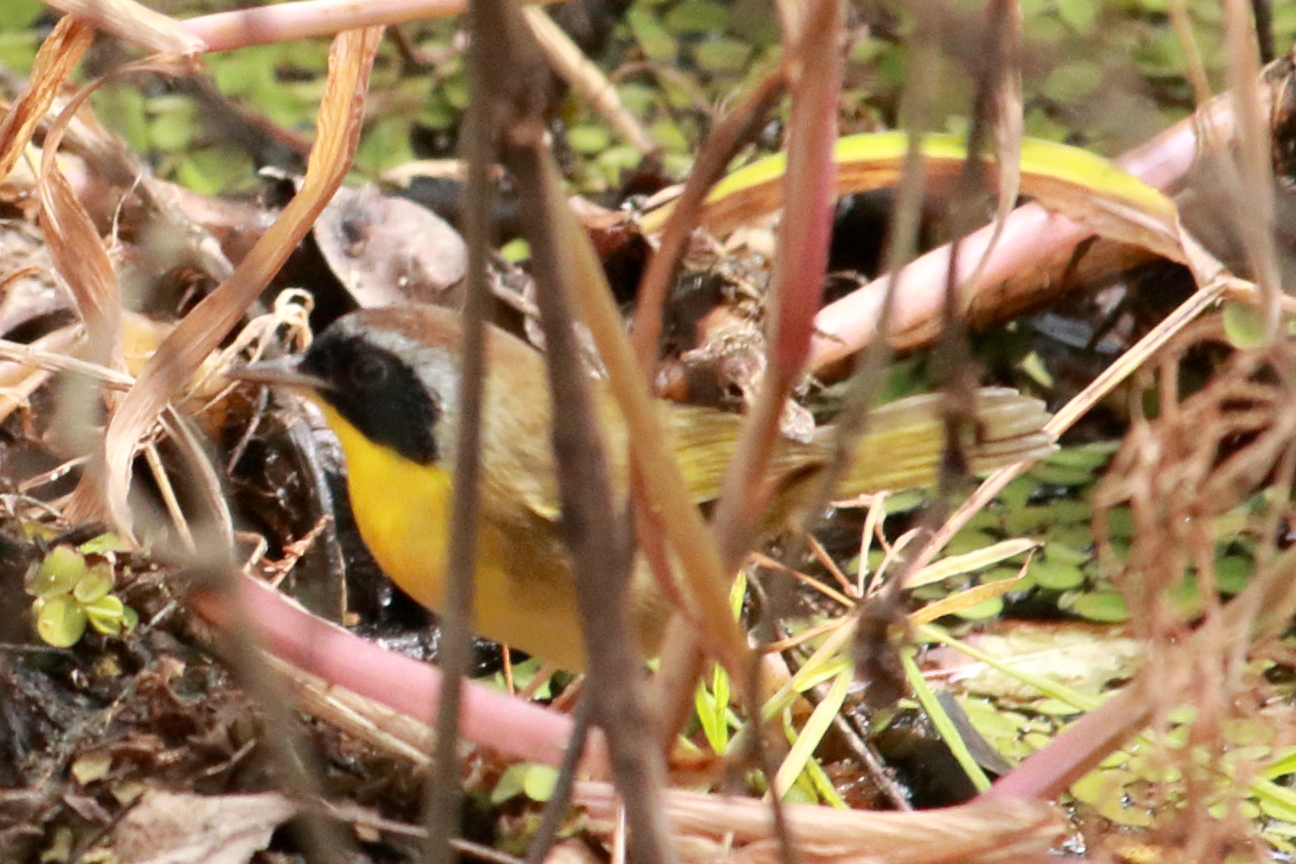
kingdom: Animalia
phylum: Chordata
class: Aves
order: Passeriformes
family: Parulidae
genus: Geothlypis
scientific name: Geothlypis trichas
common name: Common yellowthroat
